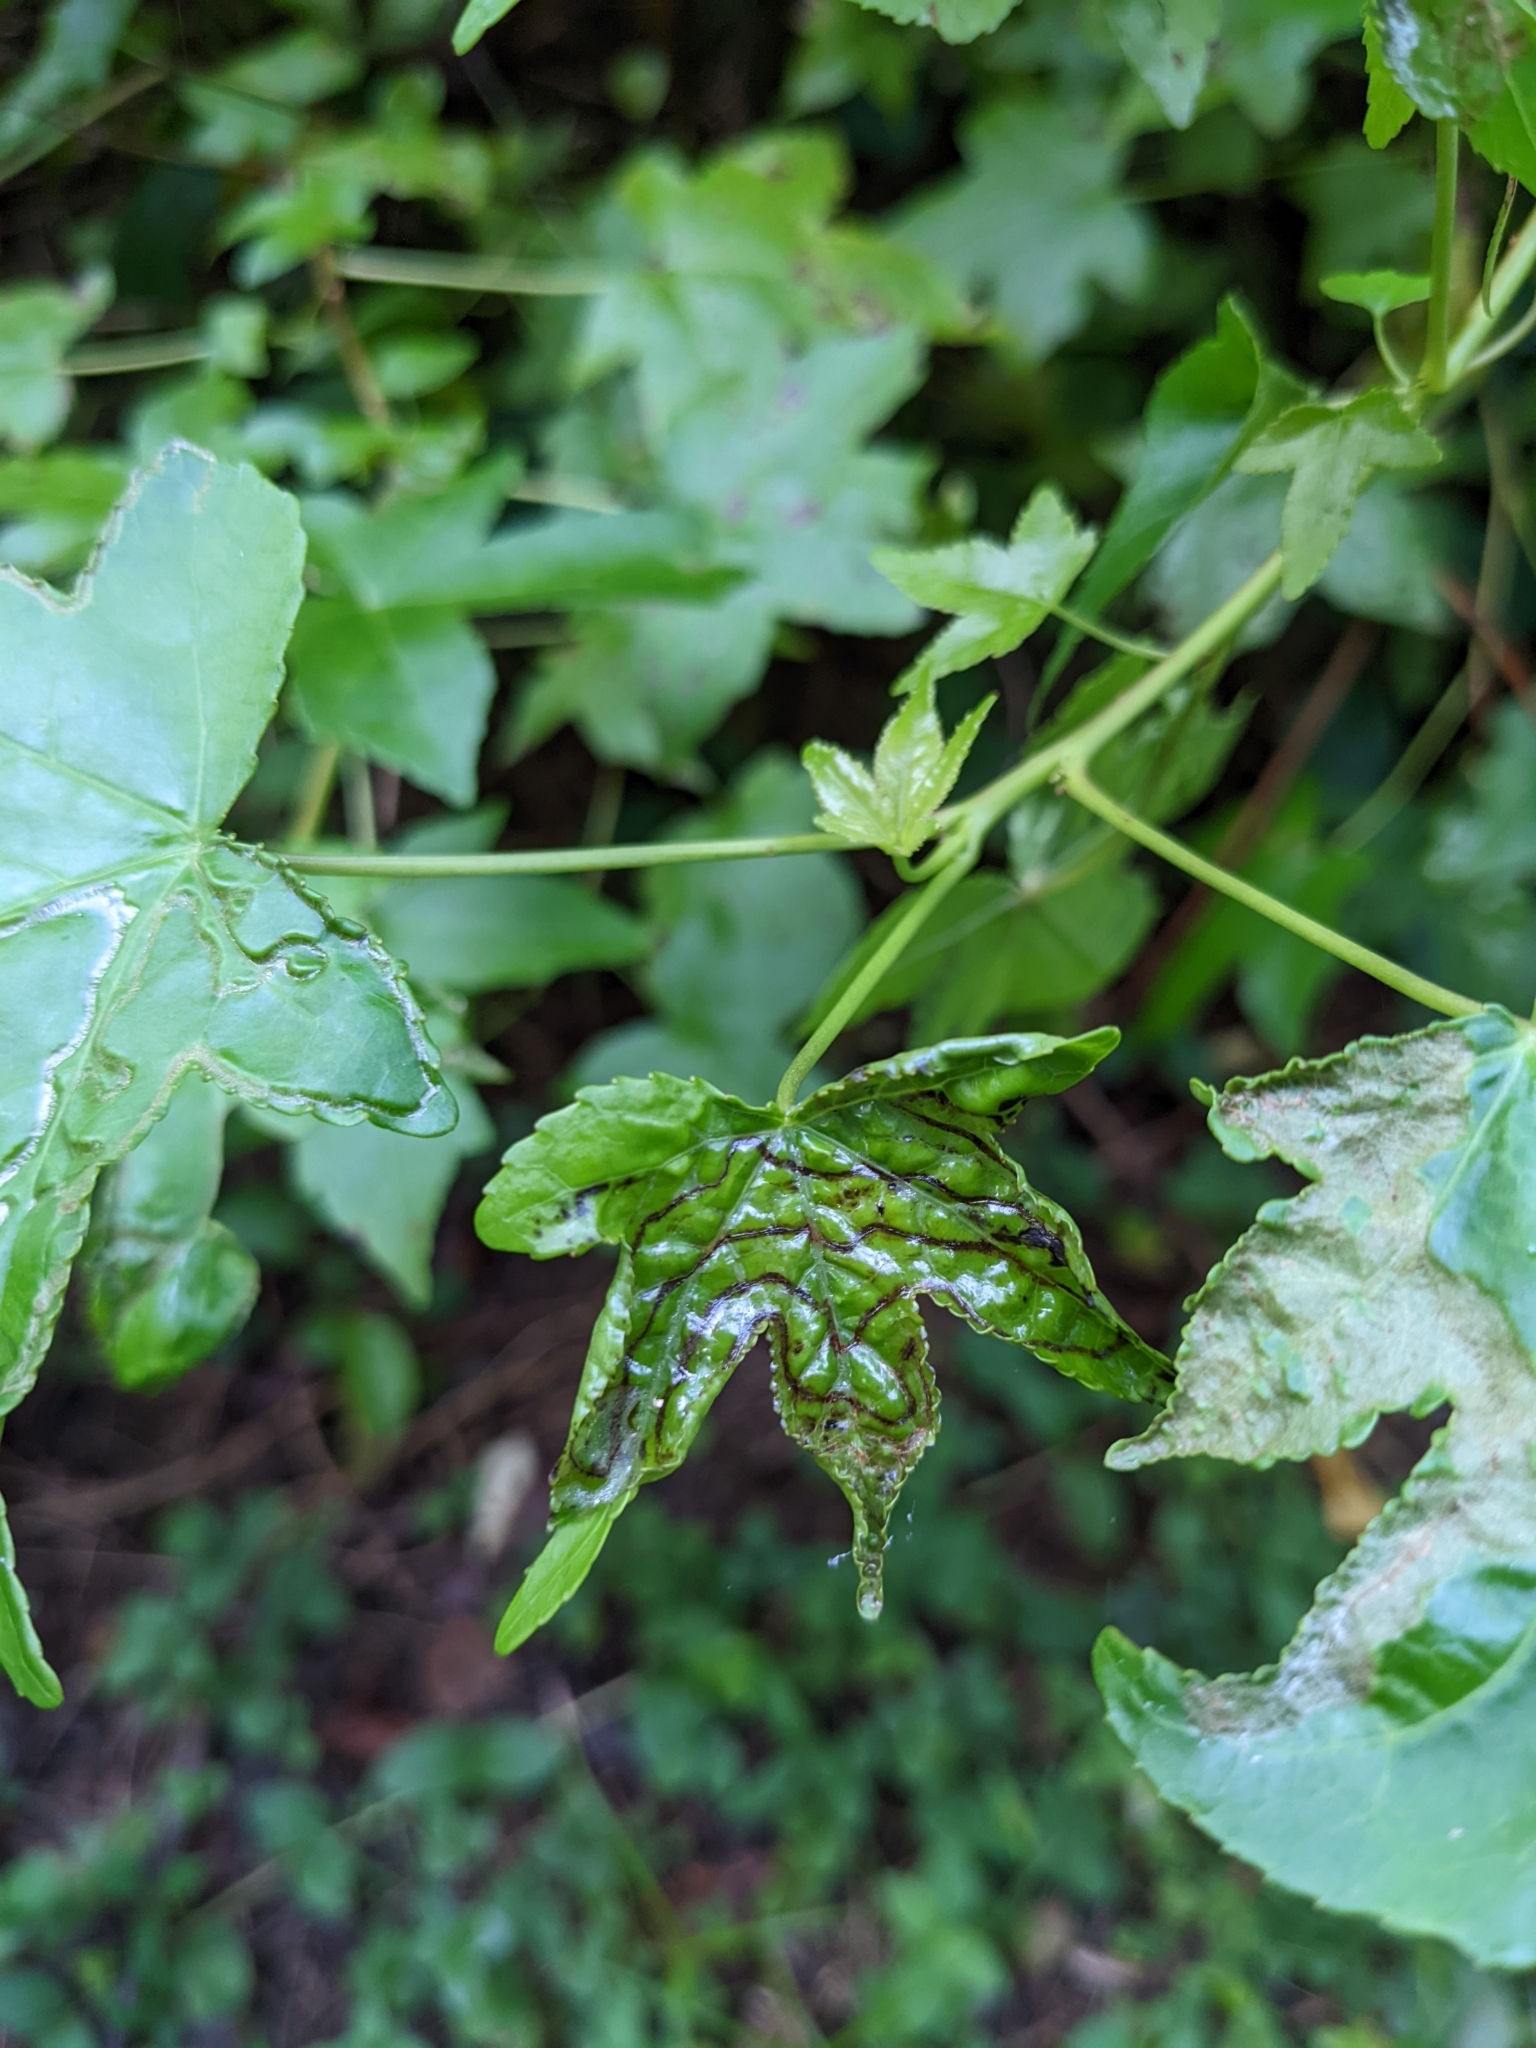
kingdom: Animalia
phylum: Arthropoda
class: Insecta
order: Lepidoptera
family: Gracillariidae
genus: Phyllocnistis
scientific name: Phyllocnistis liquidambarisella
